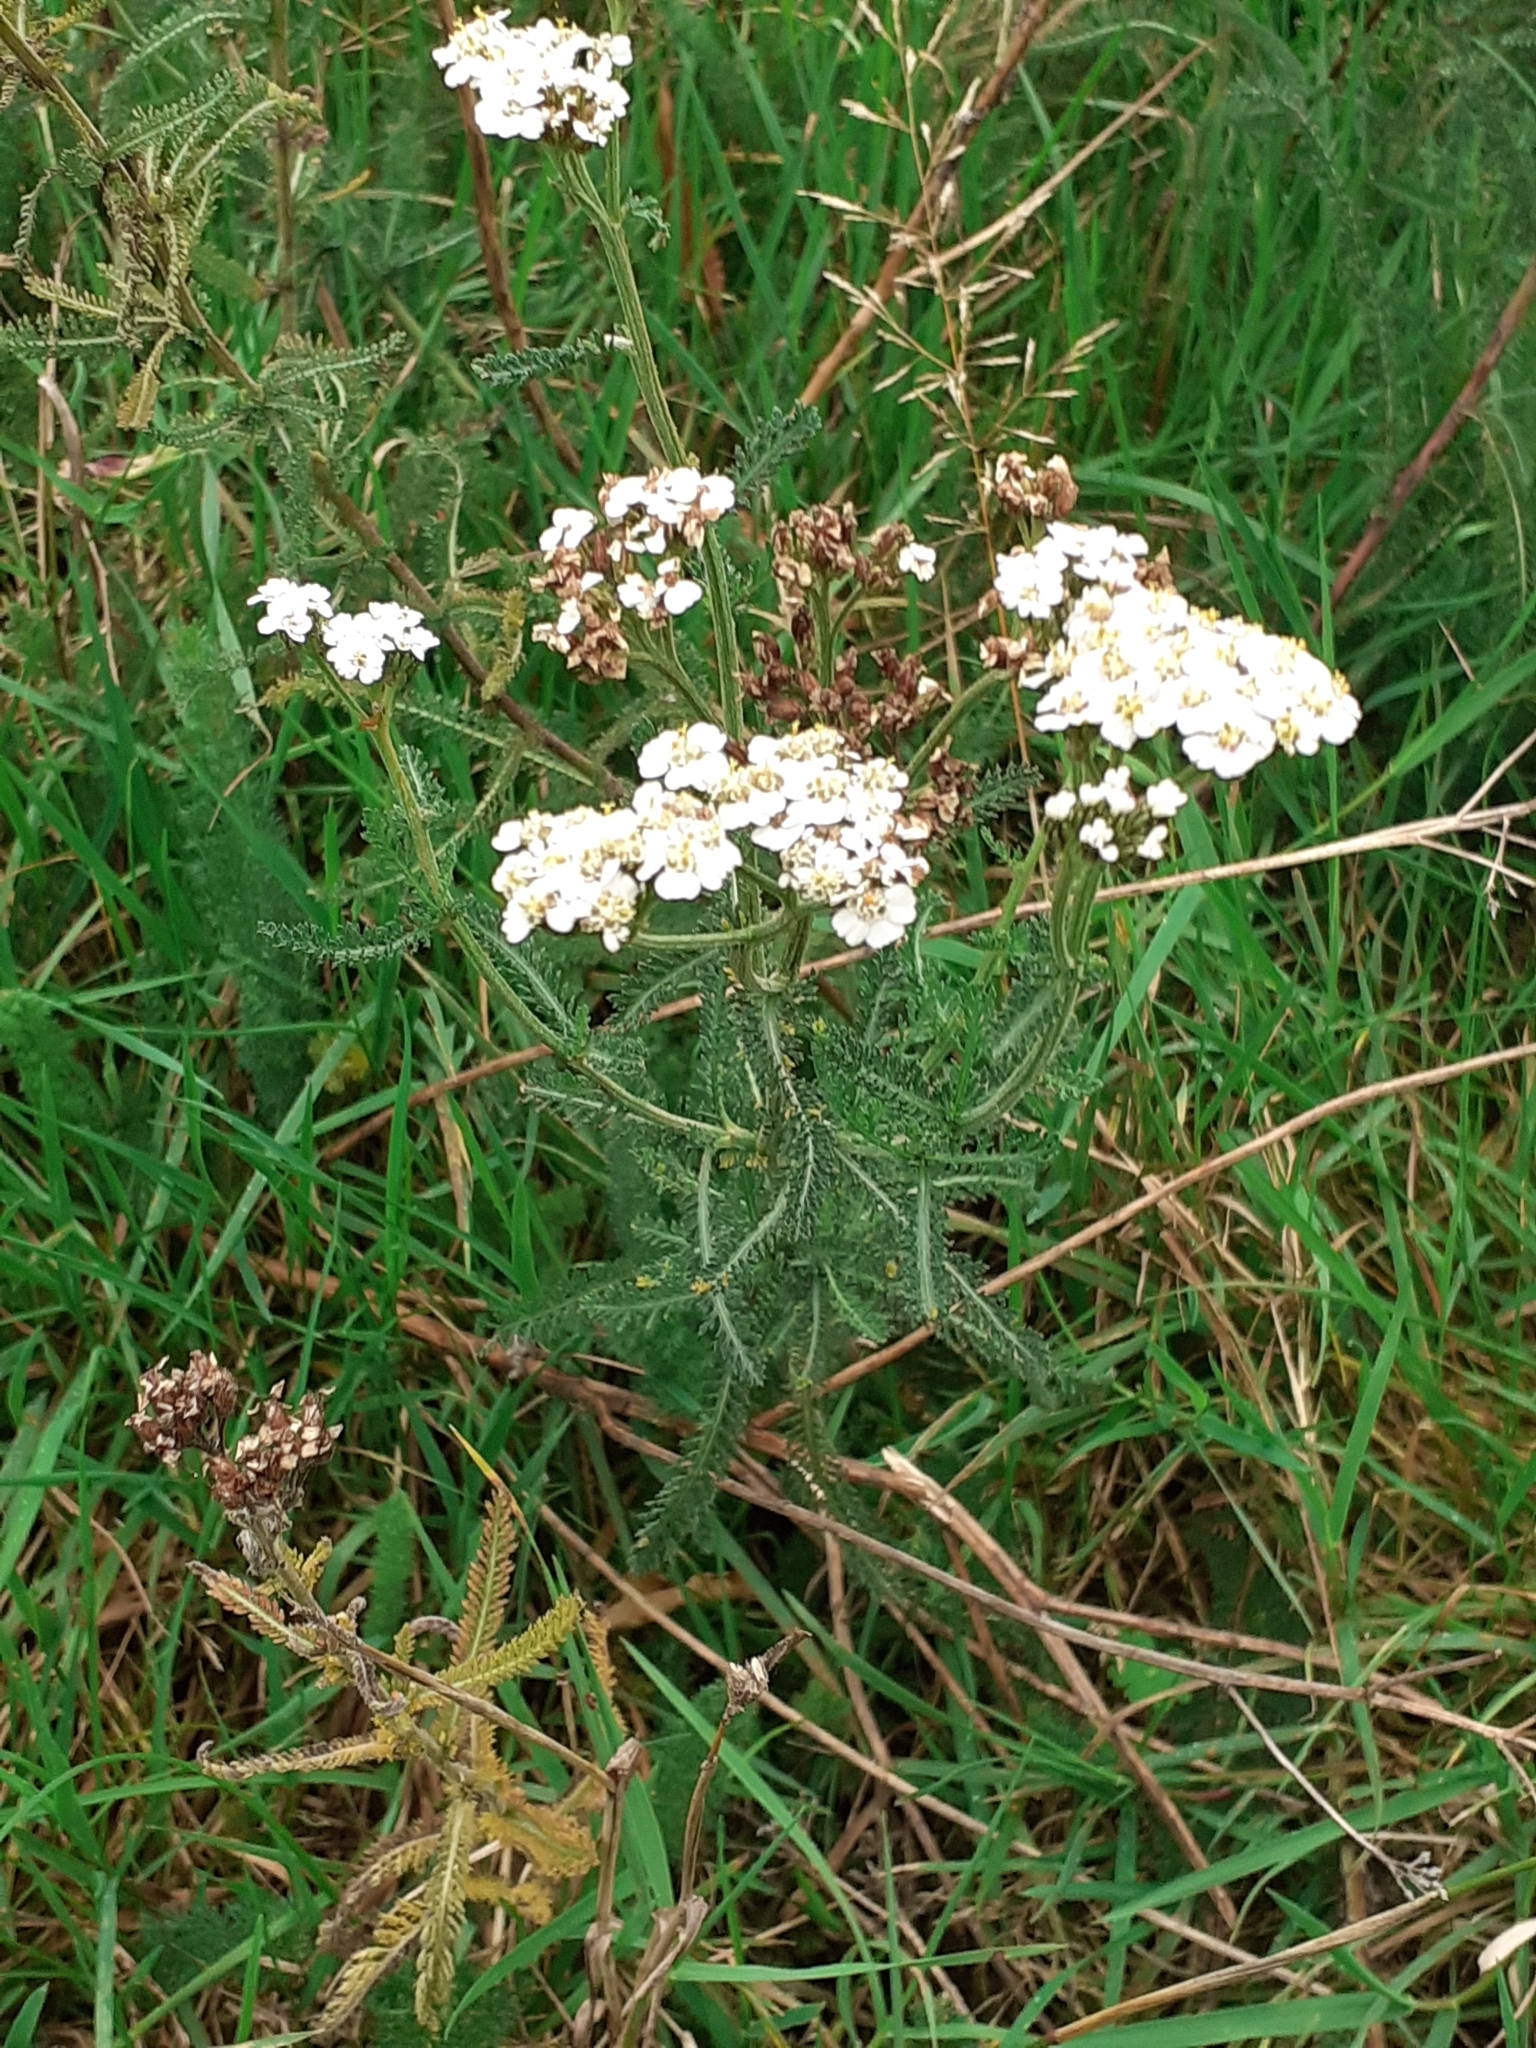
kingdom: Plantae
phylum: Tracheophyta
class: Magnoliopsida
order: Asterales
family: Asteraceae
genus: Achillea
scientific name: Achillea millefolium
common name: Yarrow
